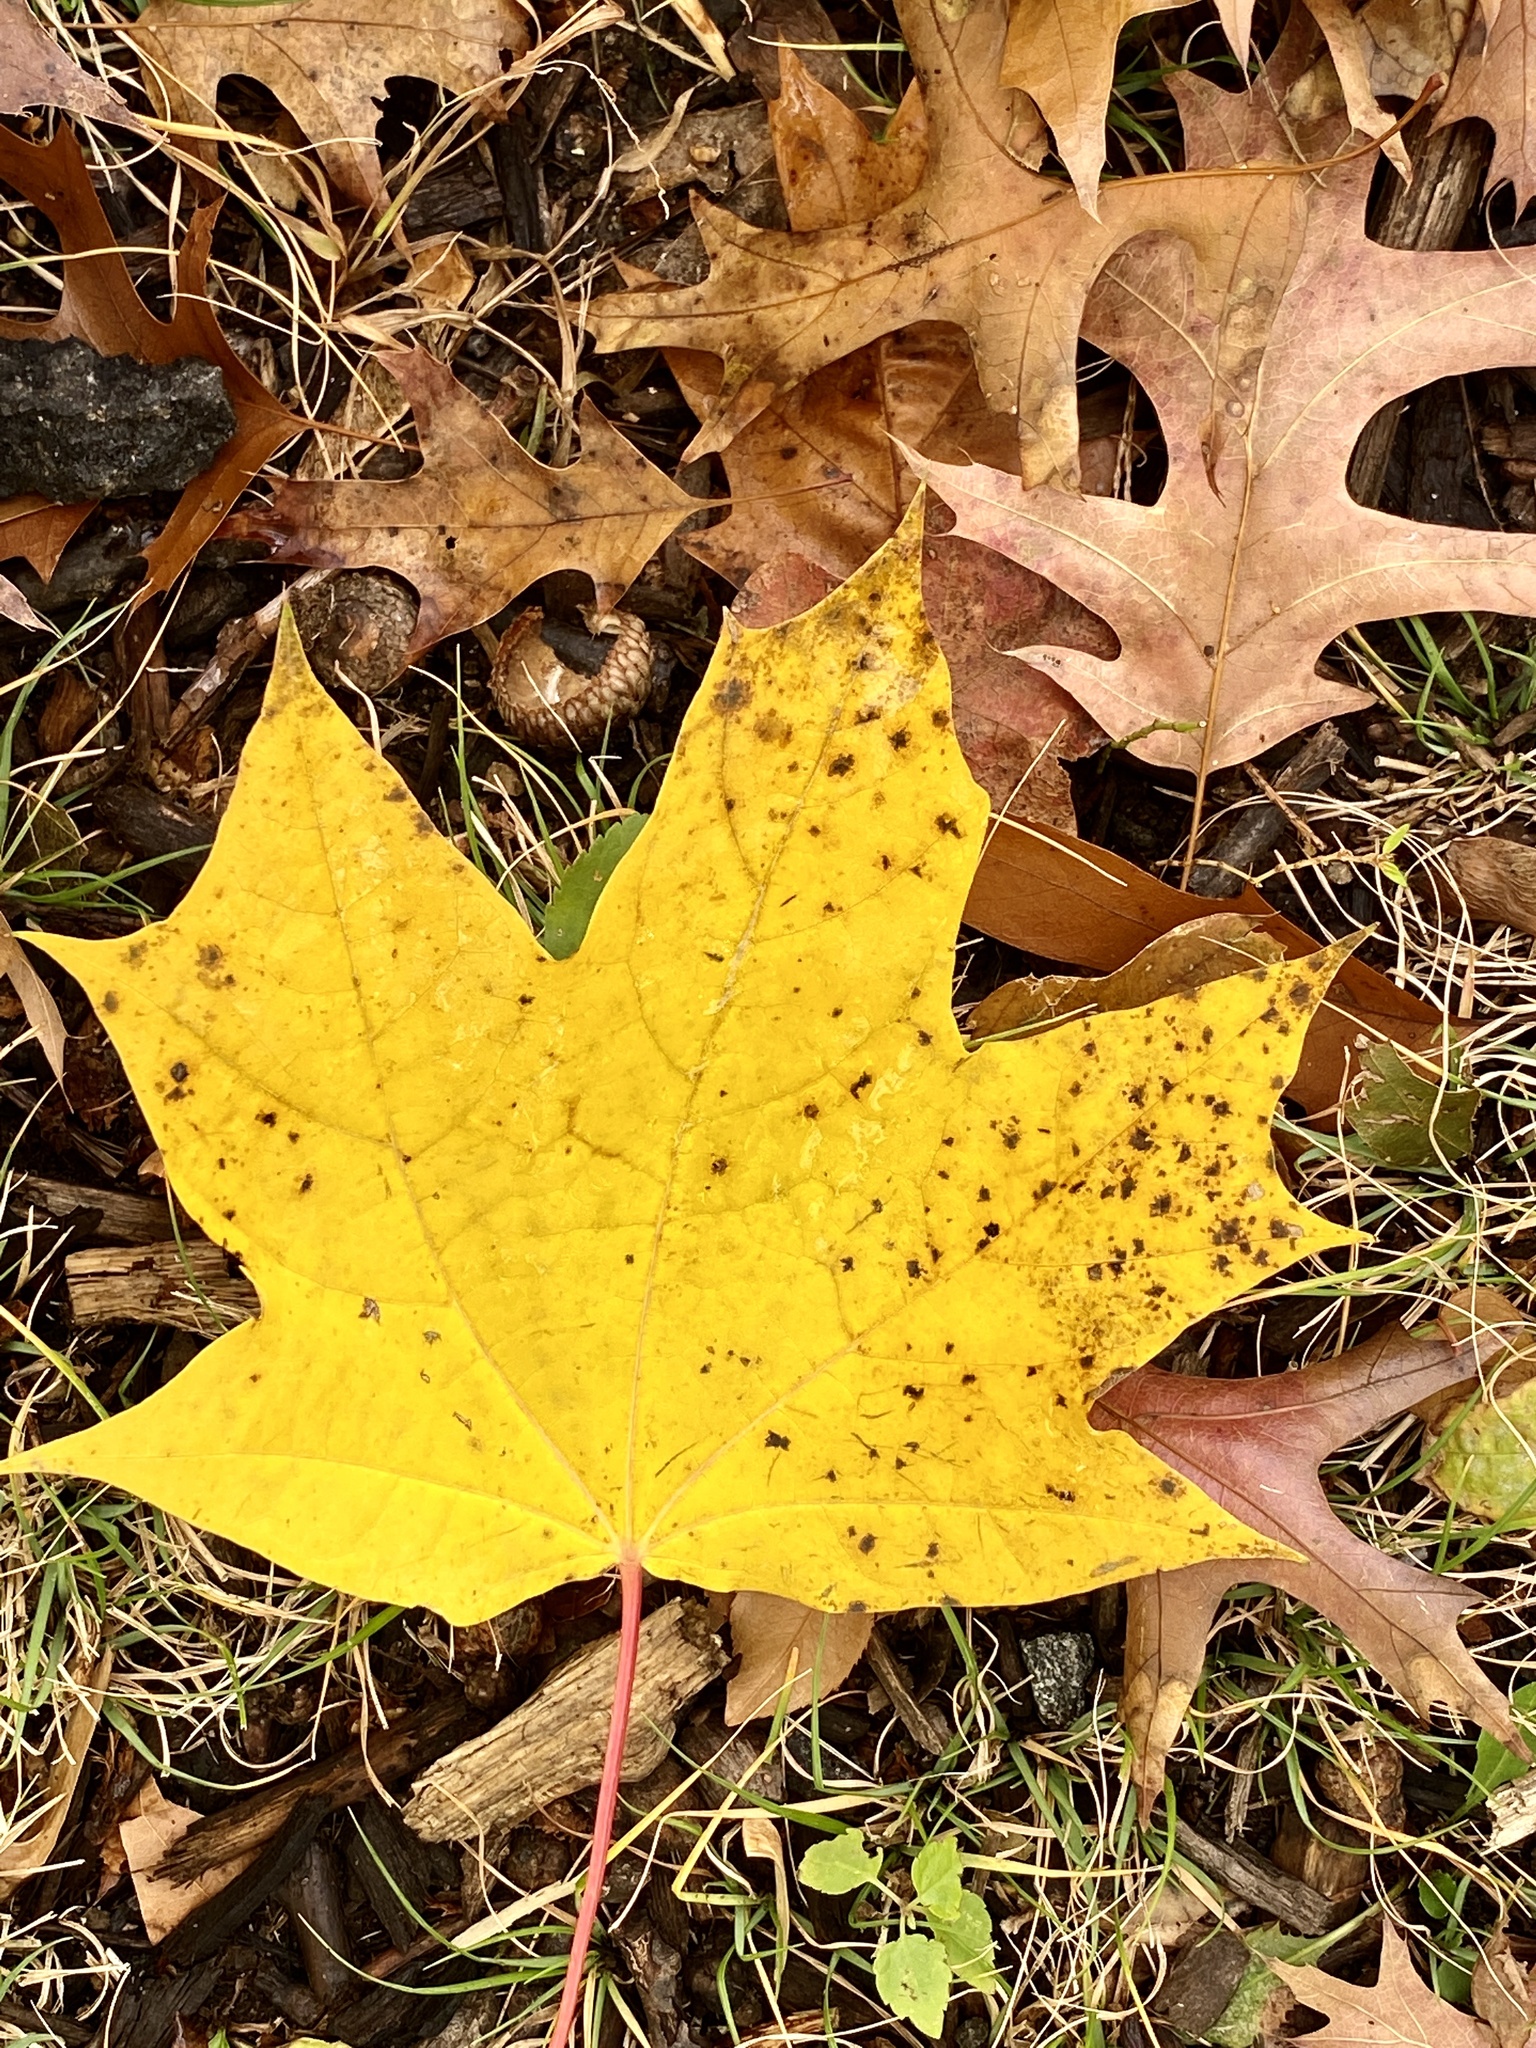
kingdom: Plantae
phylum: Tracheophyta
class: Magnoliopsida
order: Sapindales
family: Sapindaceae
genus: Acer
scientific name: Acer saccharum
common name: Sugar maple
